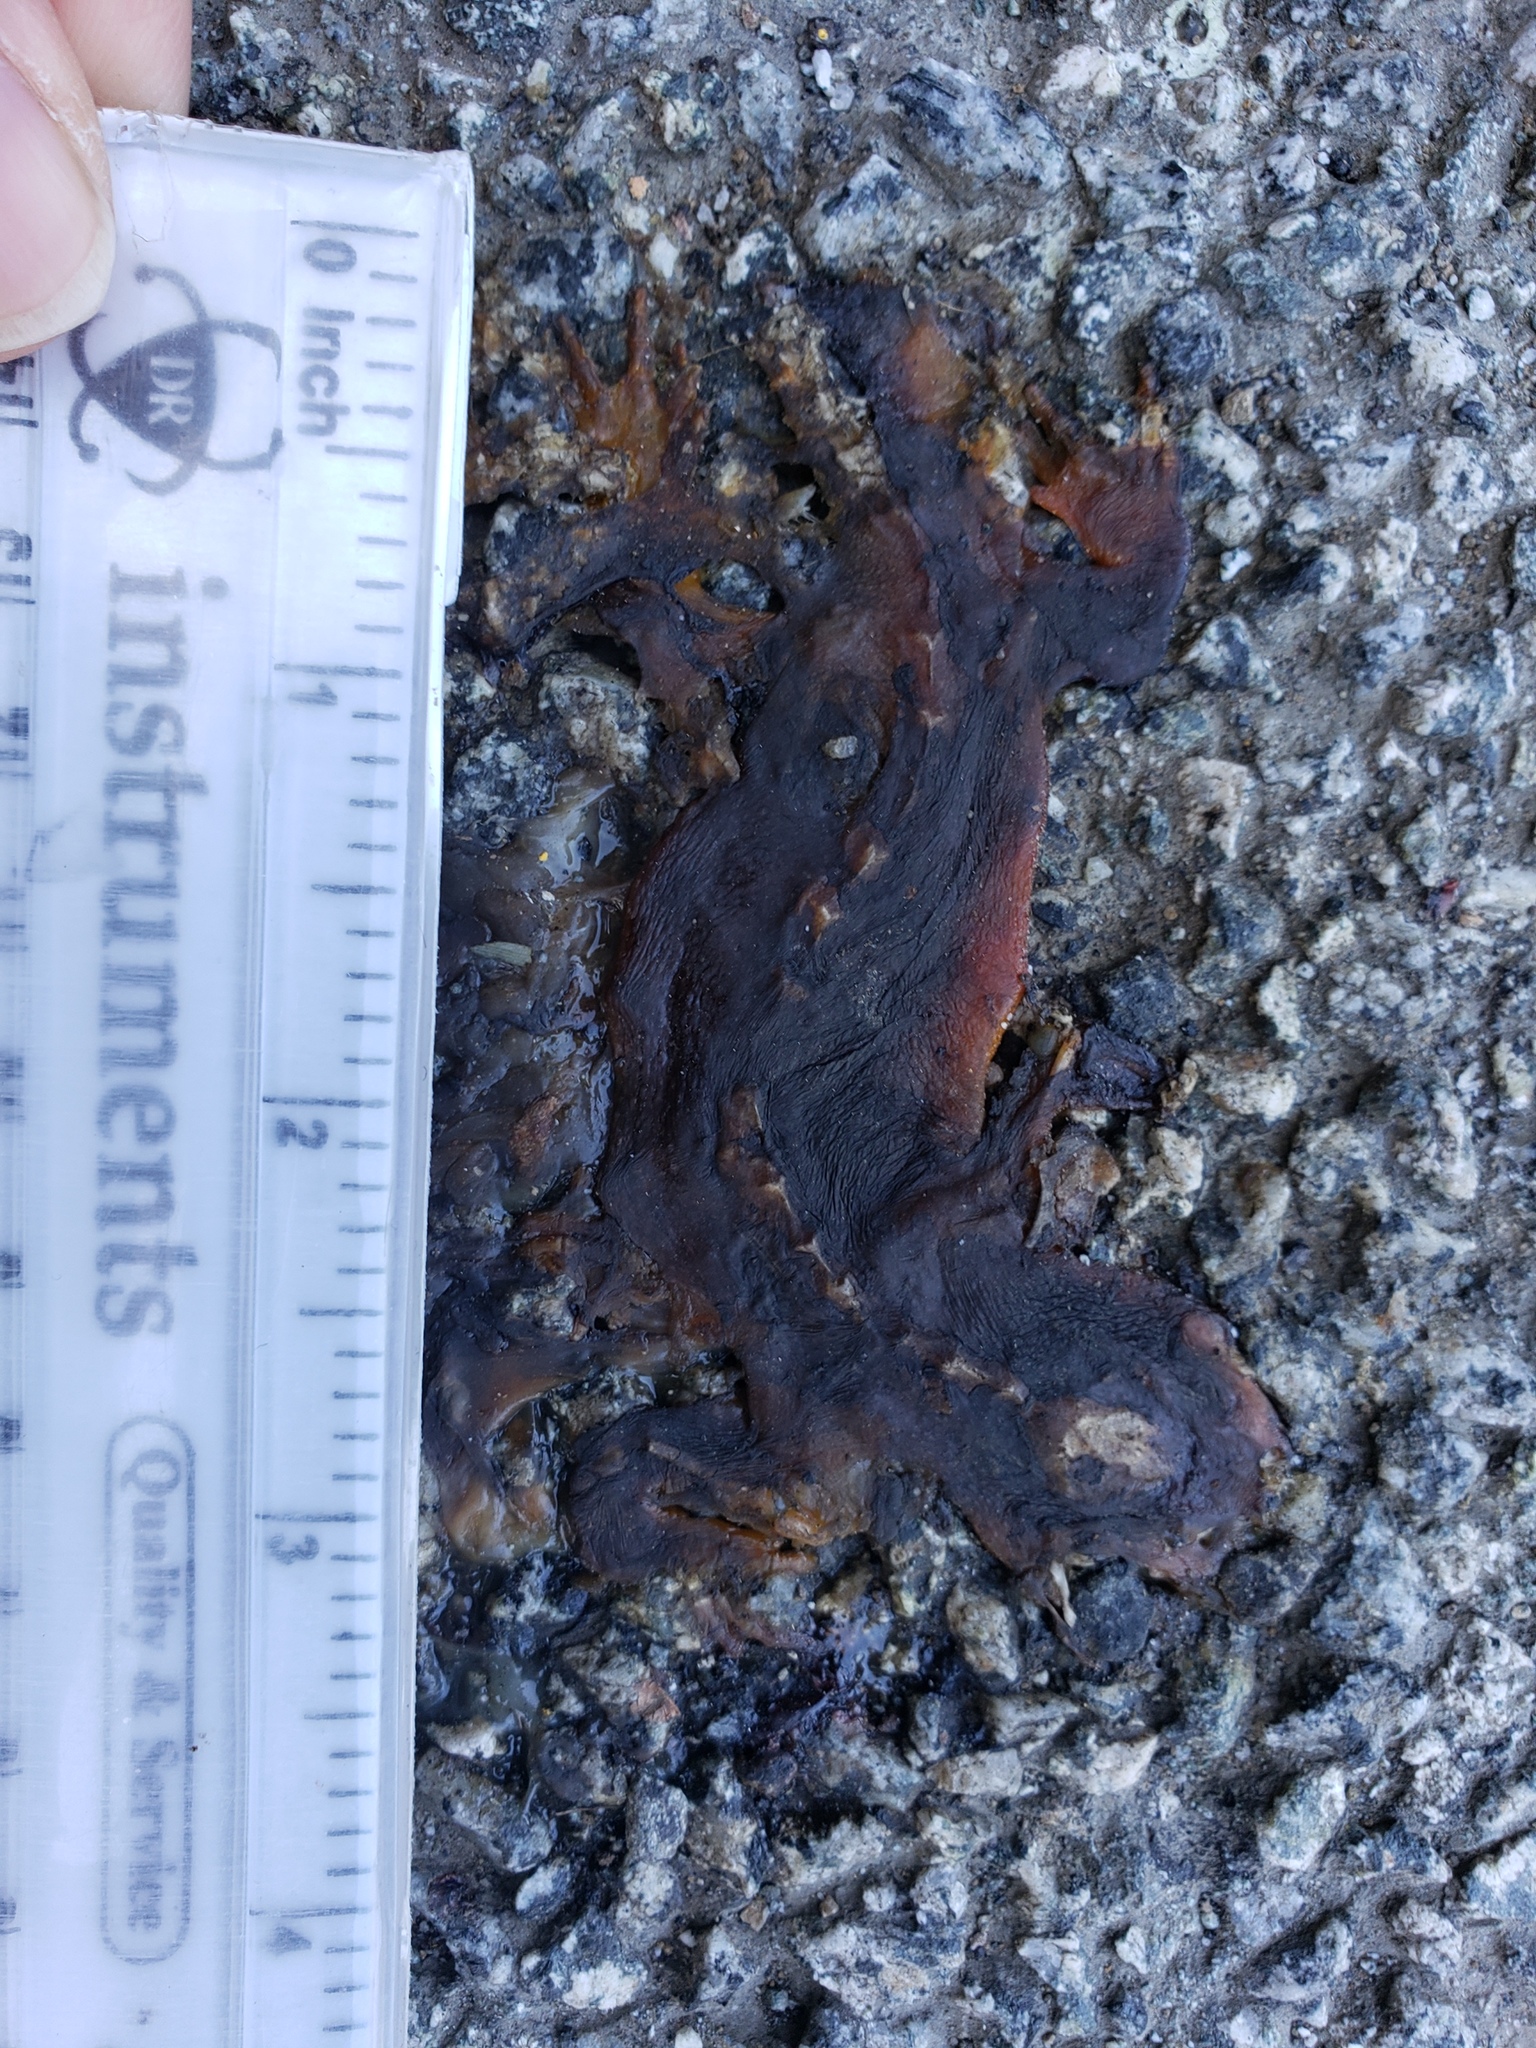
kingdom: Animalia
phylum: Chordata
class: Amphibia
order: Caudata
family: Salamandridae
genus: Taricha
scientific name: Taricha
